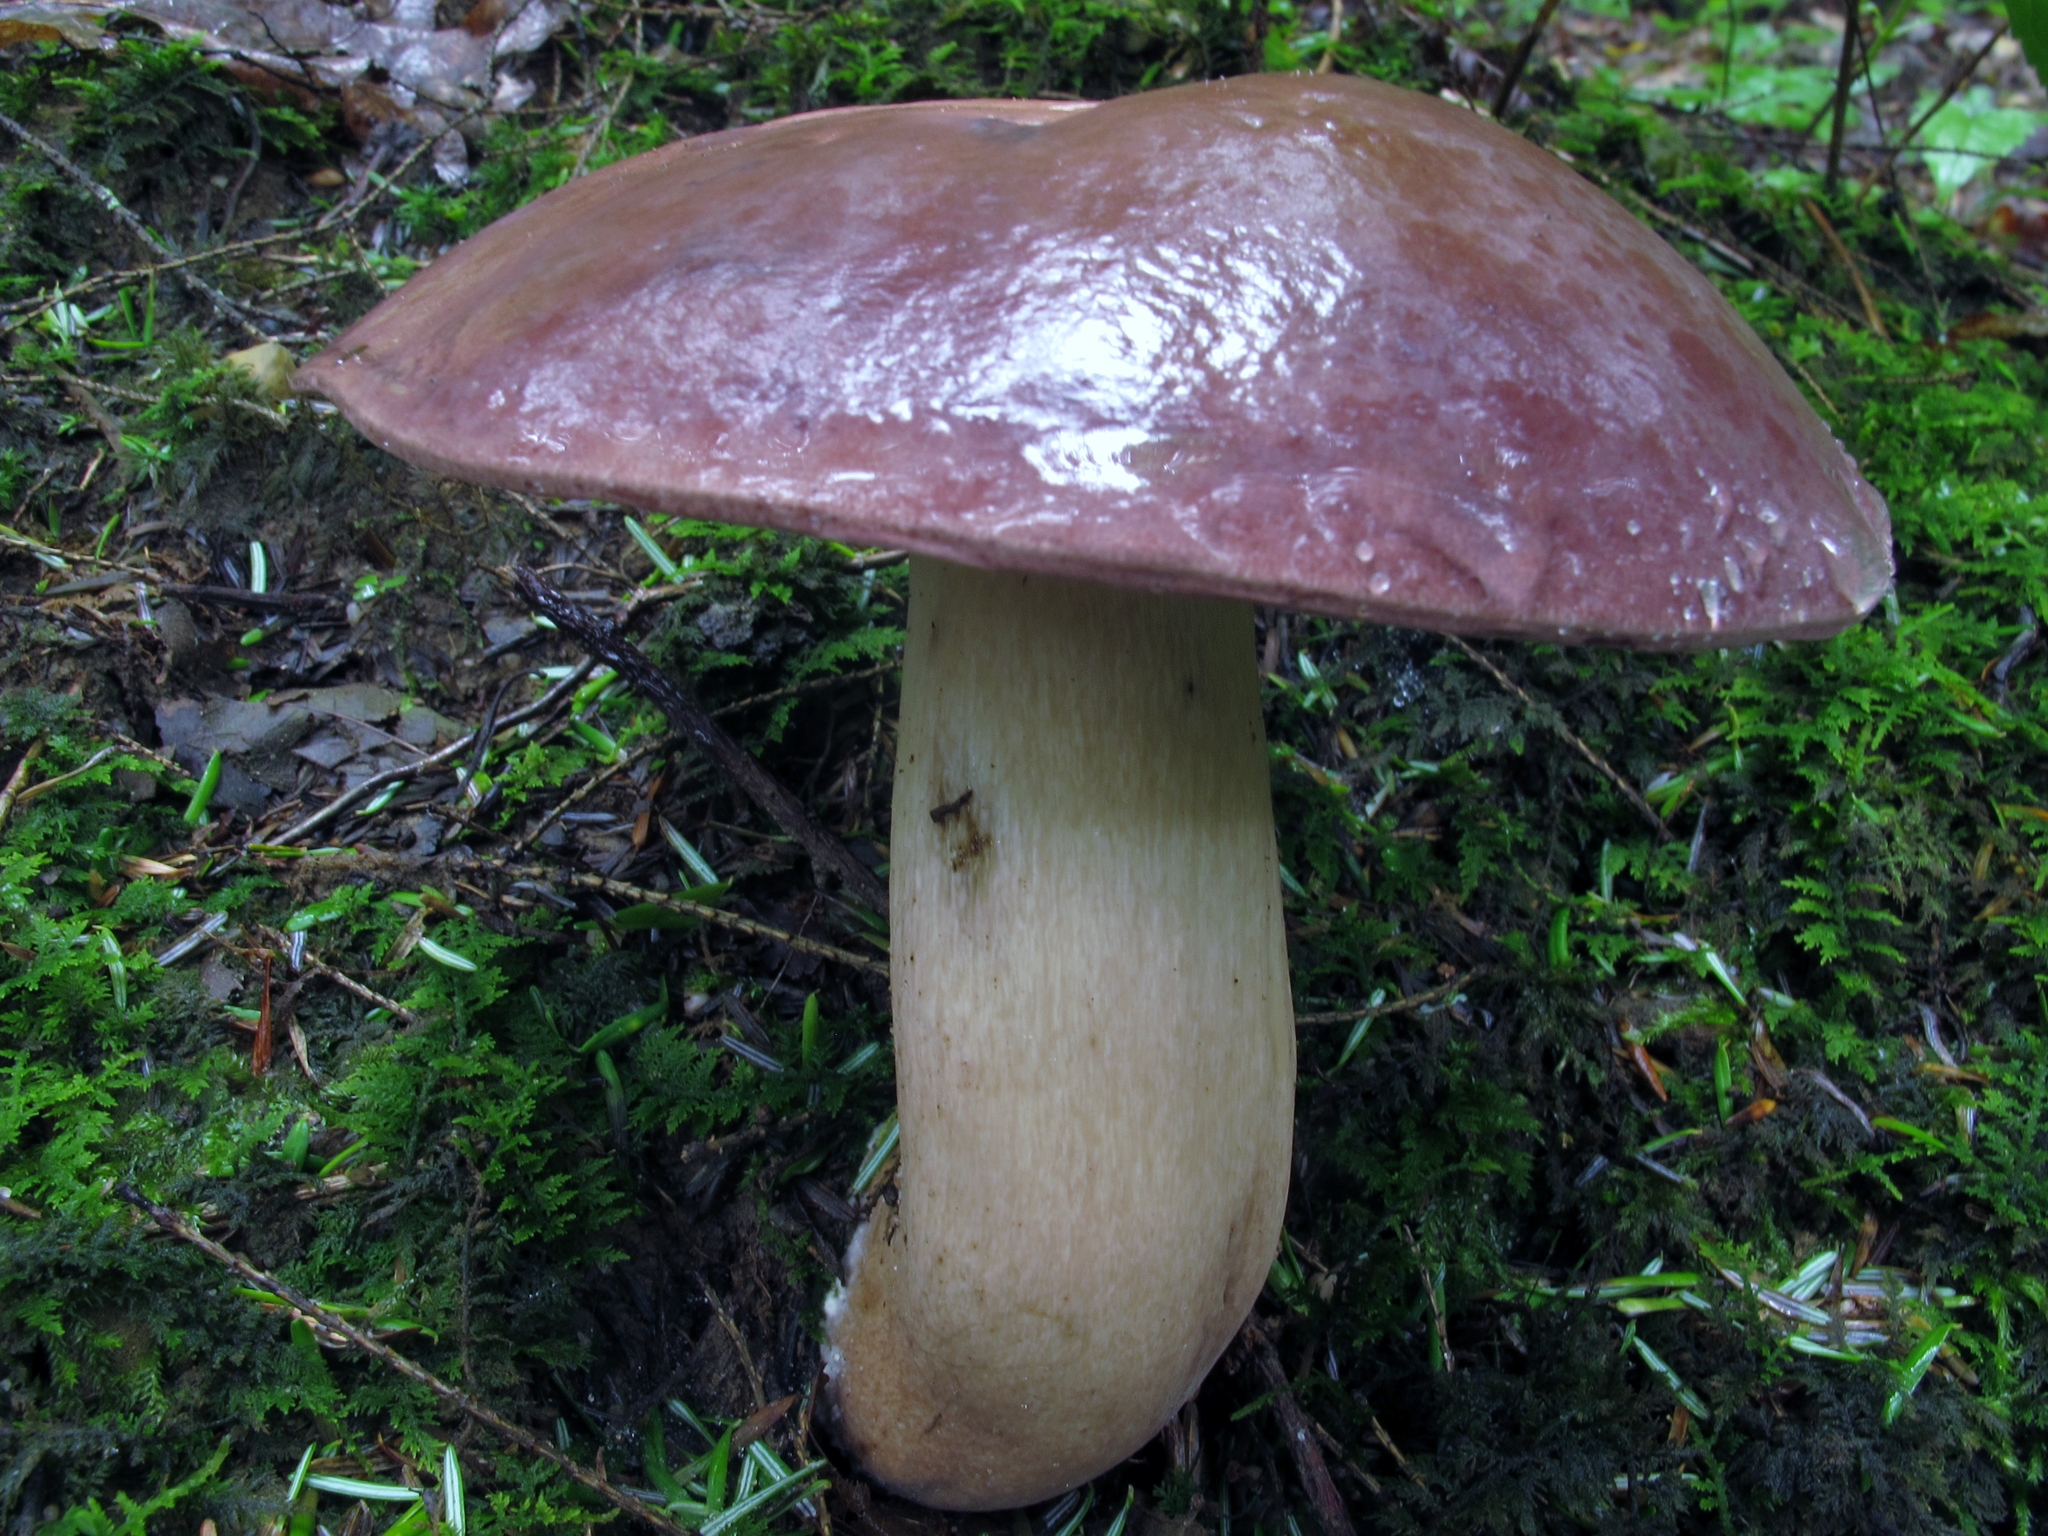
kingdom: Fungi
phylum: Basidiomycota
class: Agaricomycetes
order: Boletales
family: Boletaceae
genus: Tylopilus
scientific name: Tylopilus rubrobrunneus
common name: Reddish brown bitter bolete
